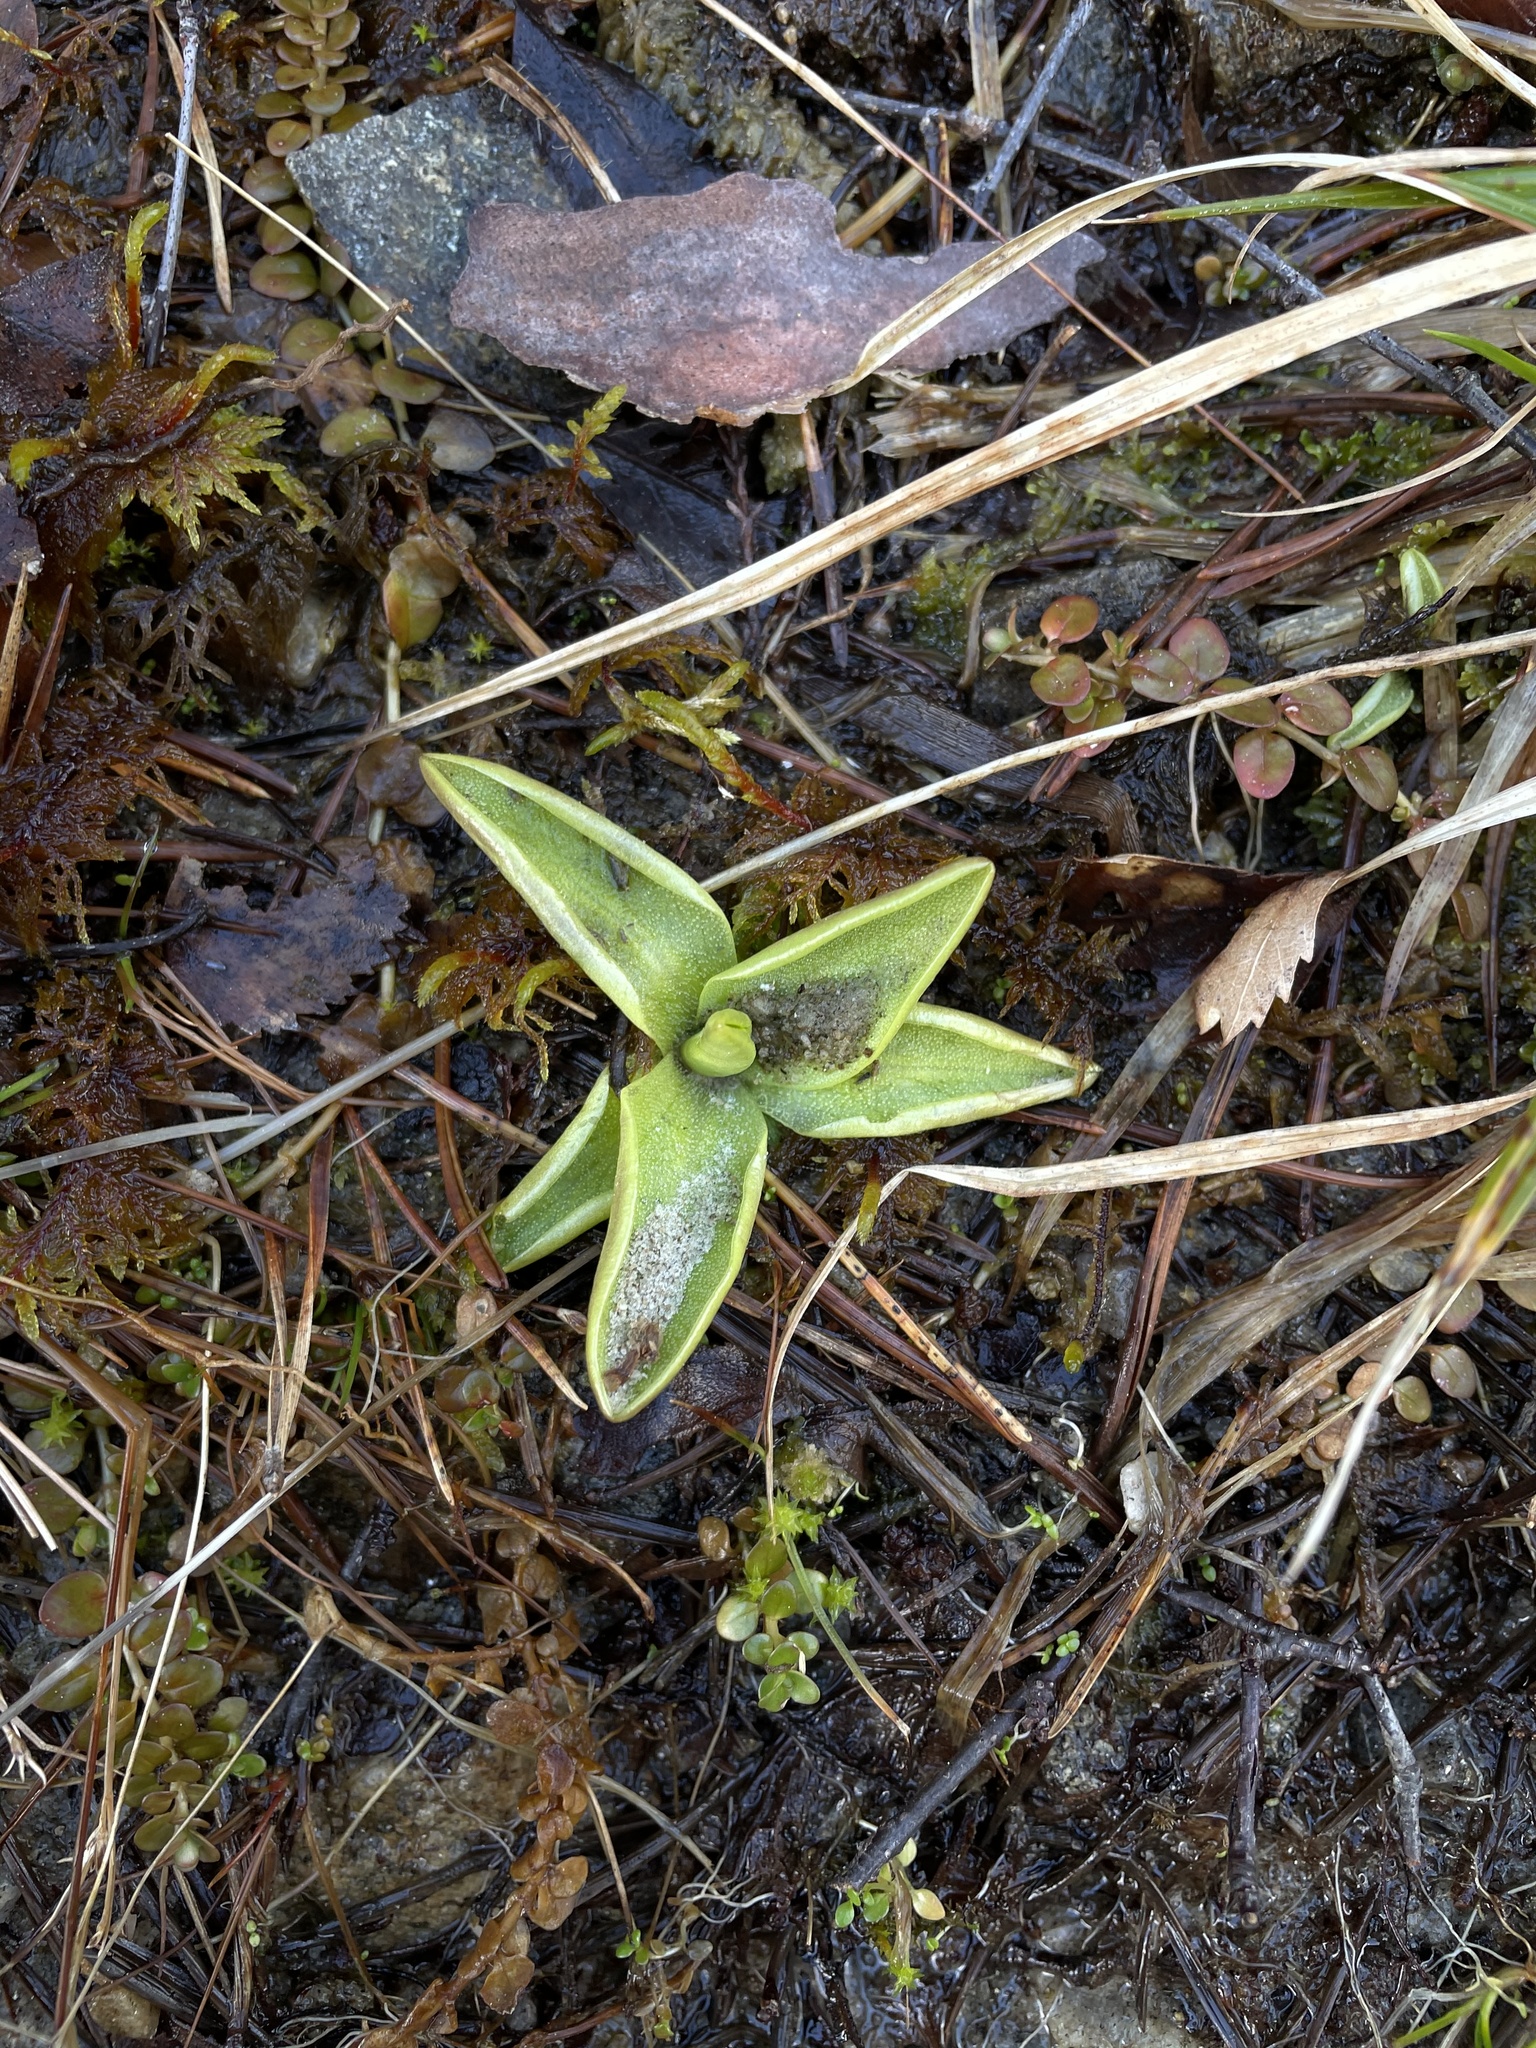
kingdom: Plantae
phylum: Tracheophyta
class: Magnoliopsida
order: Lamiales
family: Lentibulariaceae
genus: Pinguicula
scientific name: Pinguicula vulgaris
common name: Common butterwort
